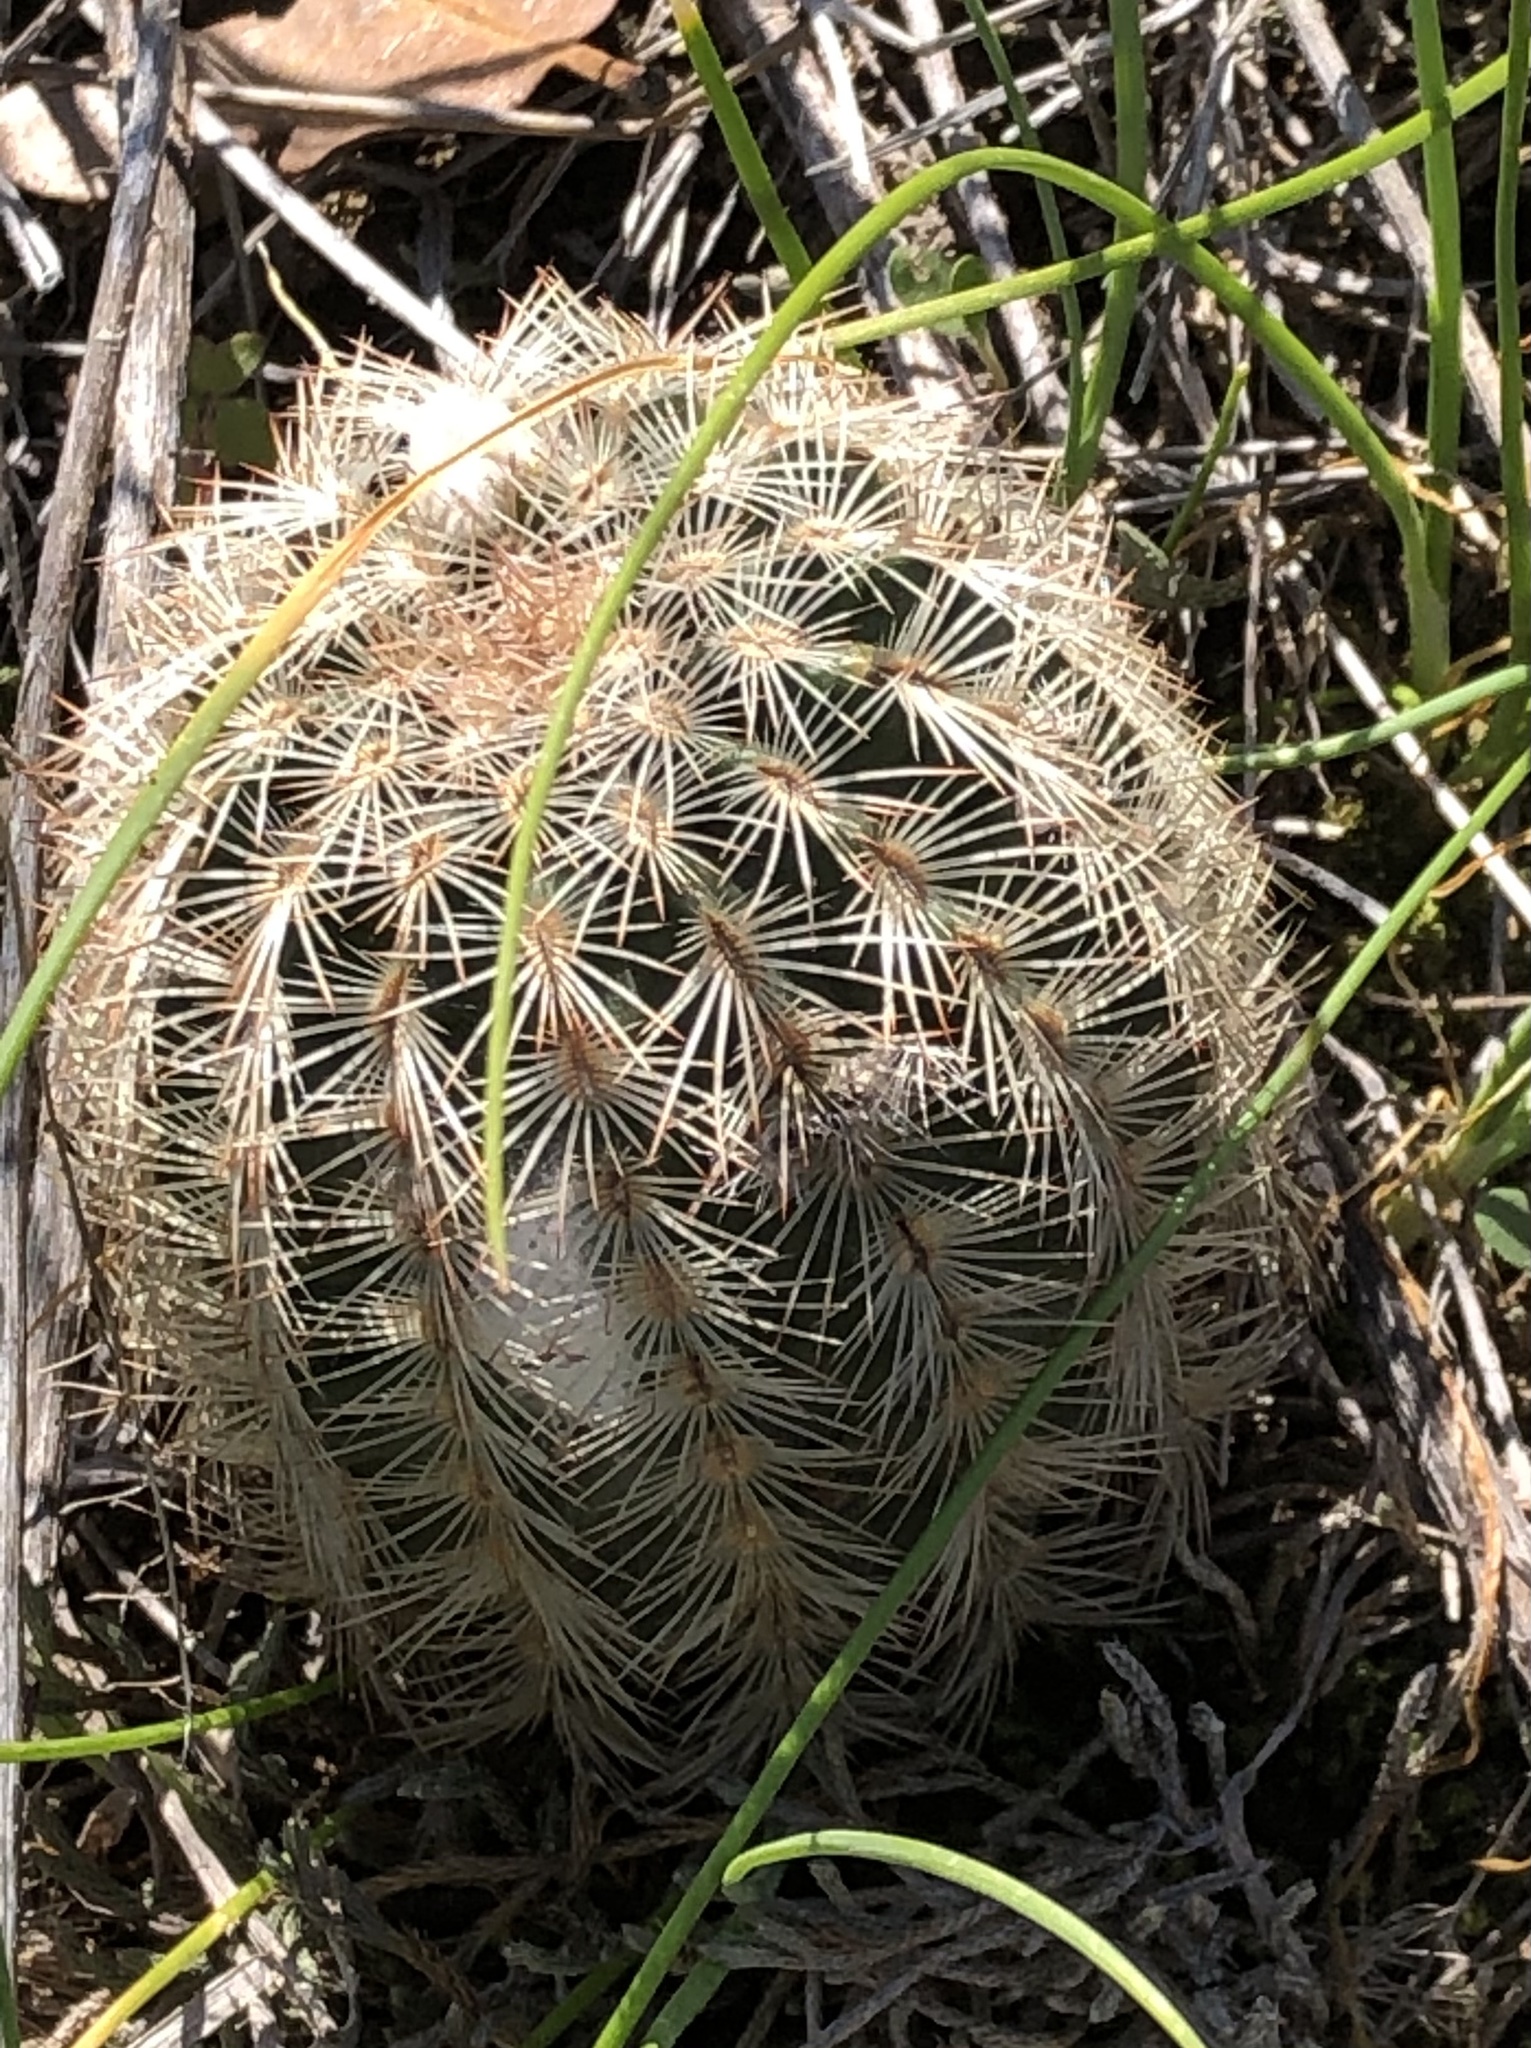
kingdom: Plantae
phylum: Tracheophyta
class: Magnoliopsida
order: Caryophyllales
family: Cactaceae
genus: Echinocereus
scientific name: Echinocereus reichenbachii
